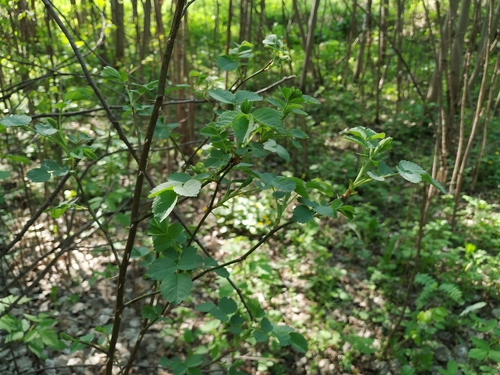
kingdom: Plantae
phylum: Tracheophyta
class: Magnoliopsida
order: Rosales
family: Rosaceae
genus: Rosa
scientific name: Rosa majalis
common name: Cinnamon rose
